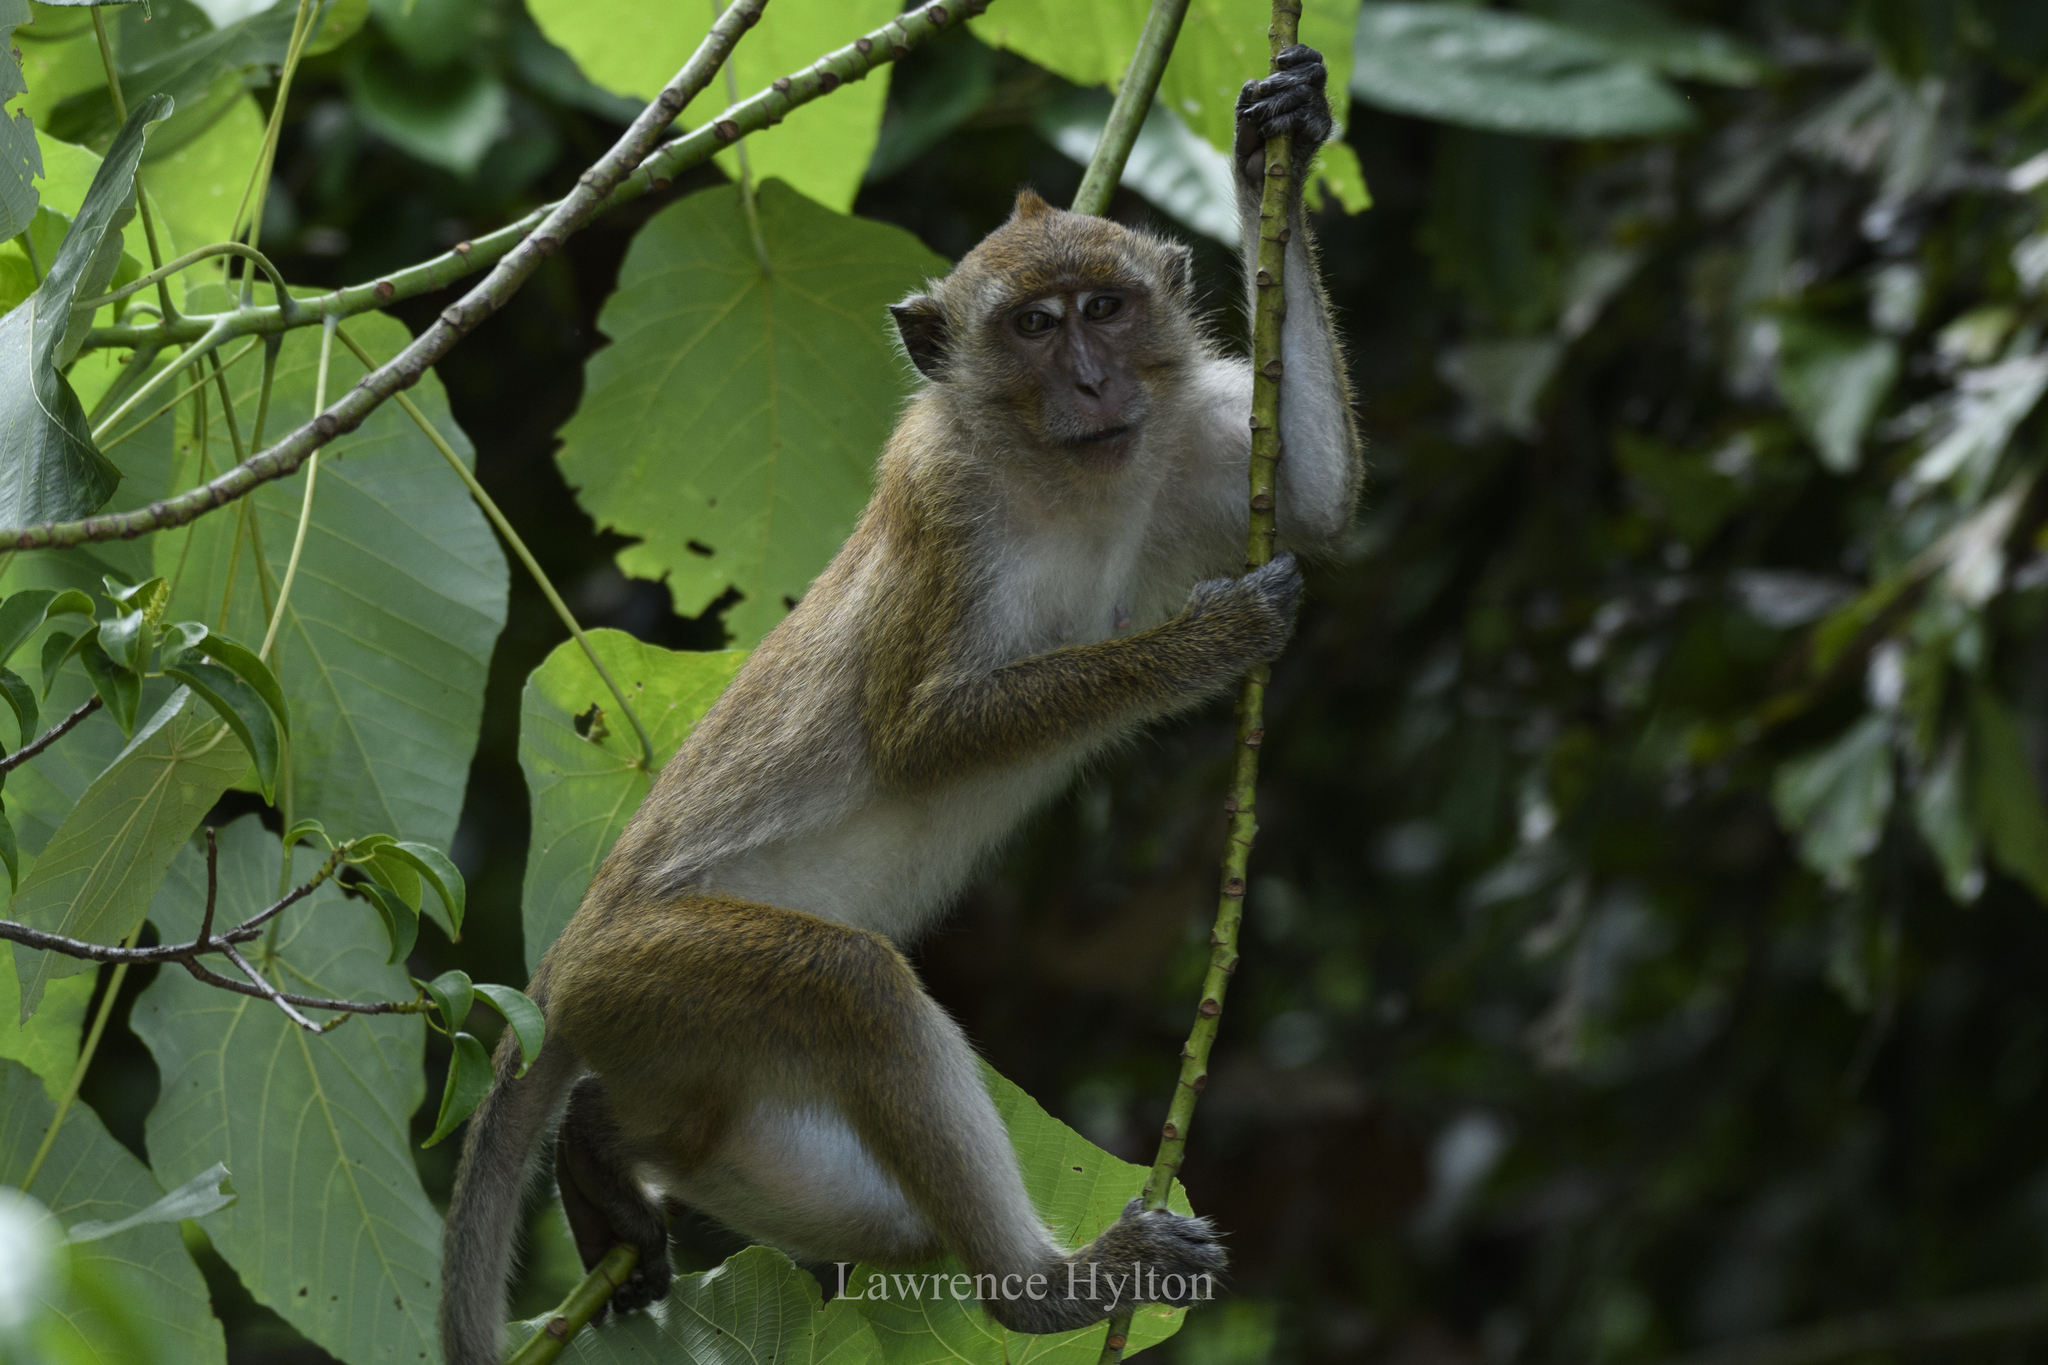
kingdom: Animalia
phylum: Chordata
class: Mammalia
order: Primates
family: Cercopithecidae
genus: Macaca
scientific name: Macaca fascicularis
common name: Crab-eating macaque
